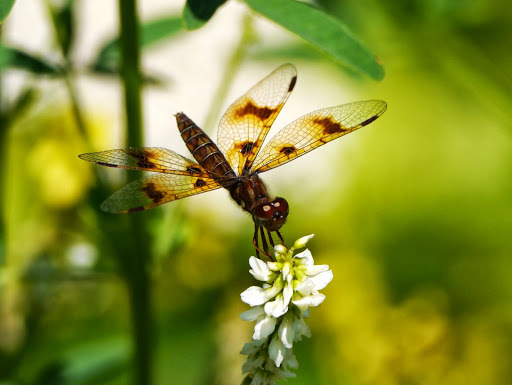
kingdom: Animalia
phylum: Arthropoda
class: Insecta
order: Odonata
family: Libellulidae
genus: Perithemis
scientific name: Perithemis tenera
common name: Eastern amberwing
